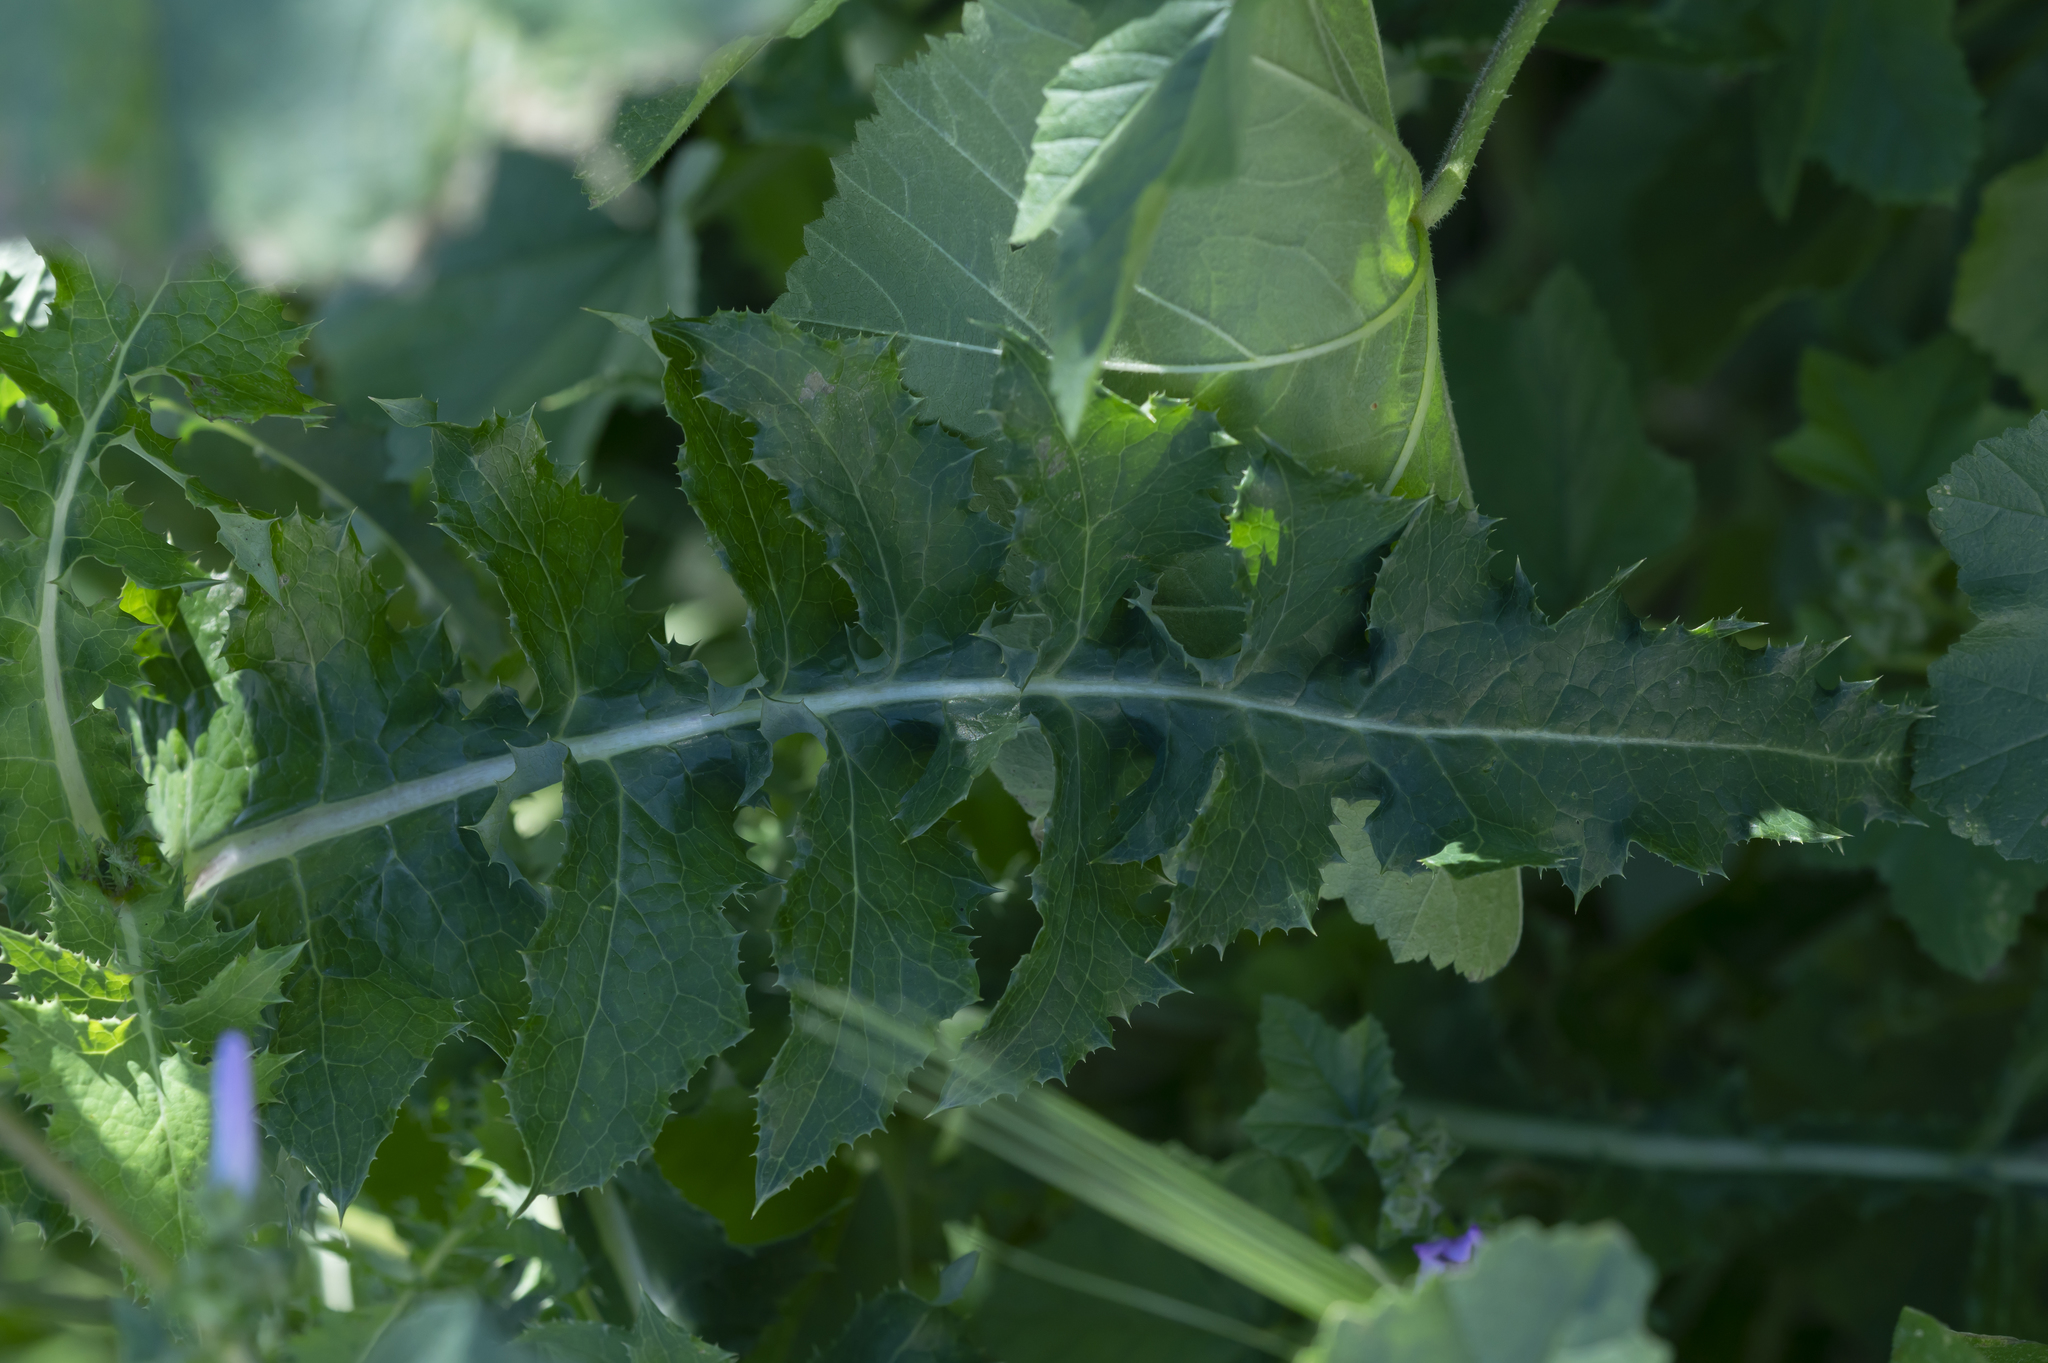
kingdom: Plantae
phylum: Tracheophyta
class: Magnoliopsida
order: Asterales
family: Asteraceae
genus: Sonchus
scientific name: Sonchus asper
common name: Prickly sow-thistle
